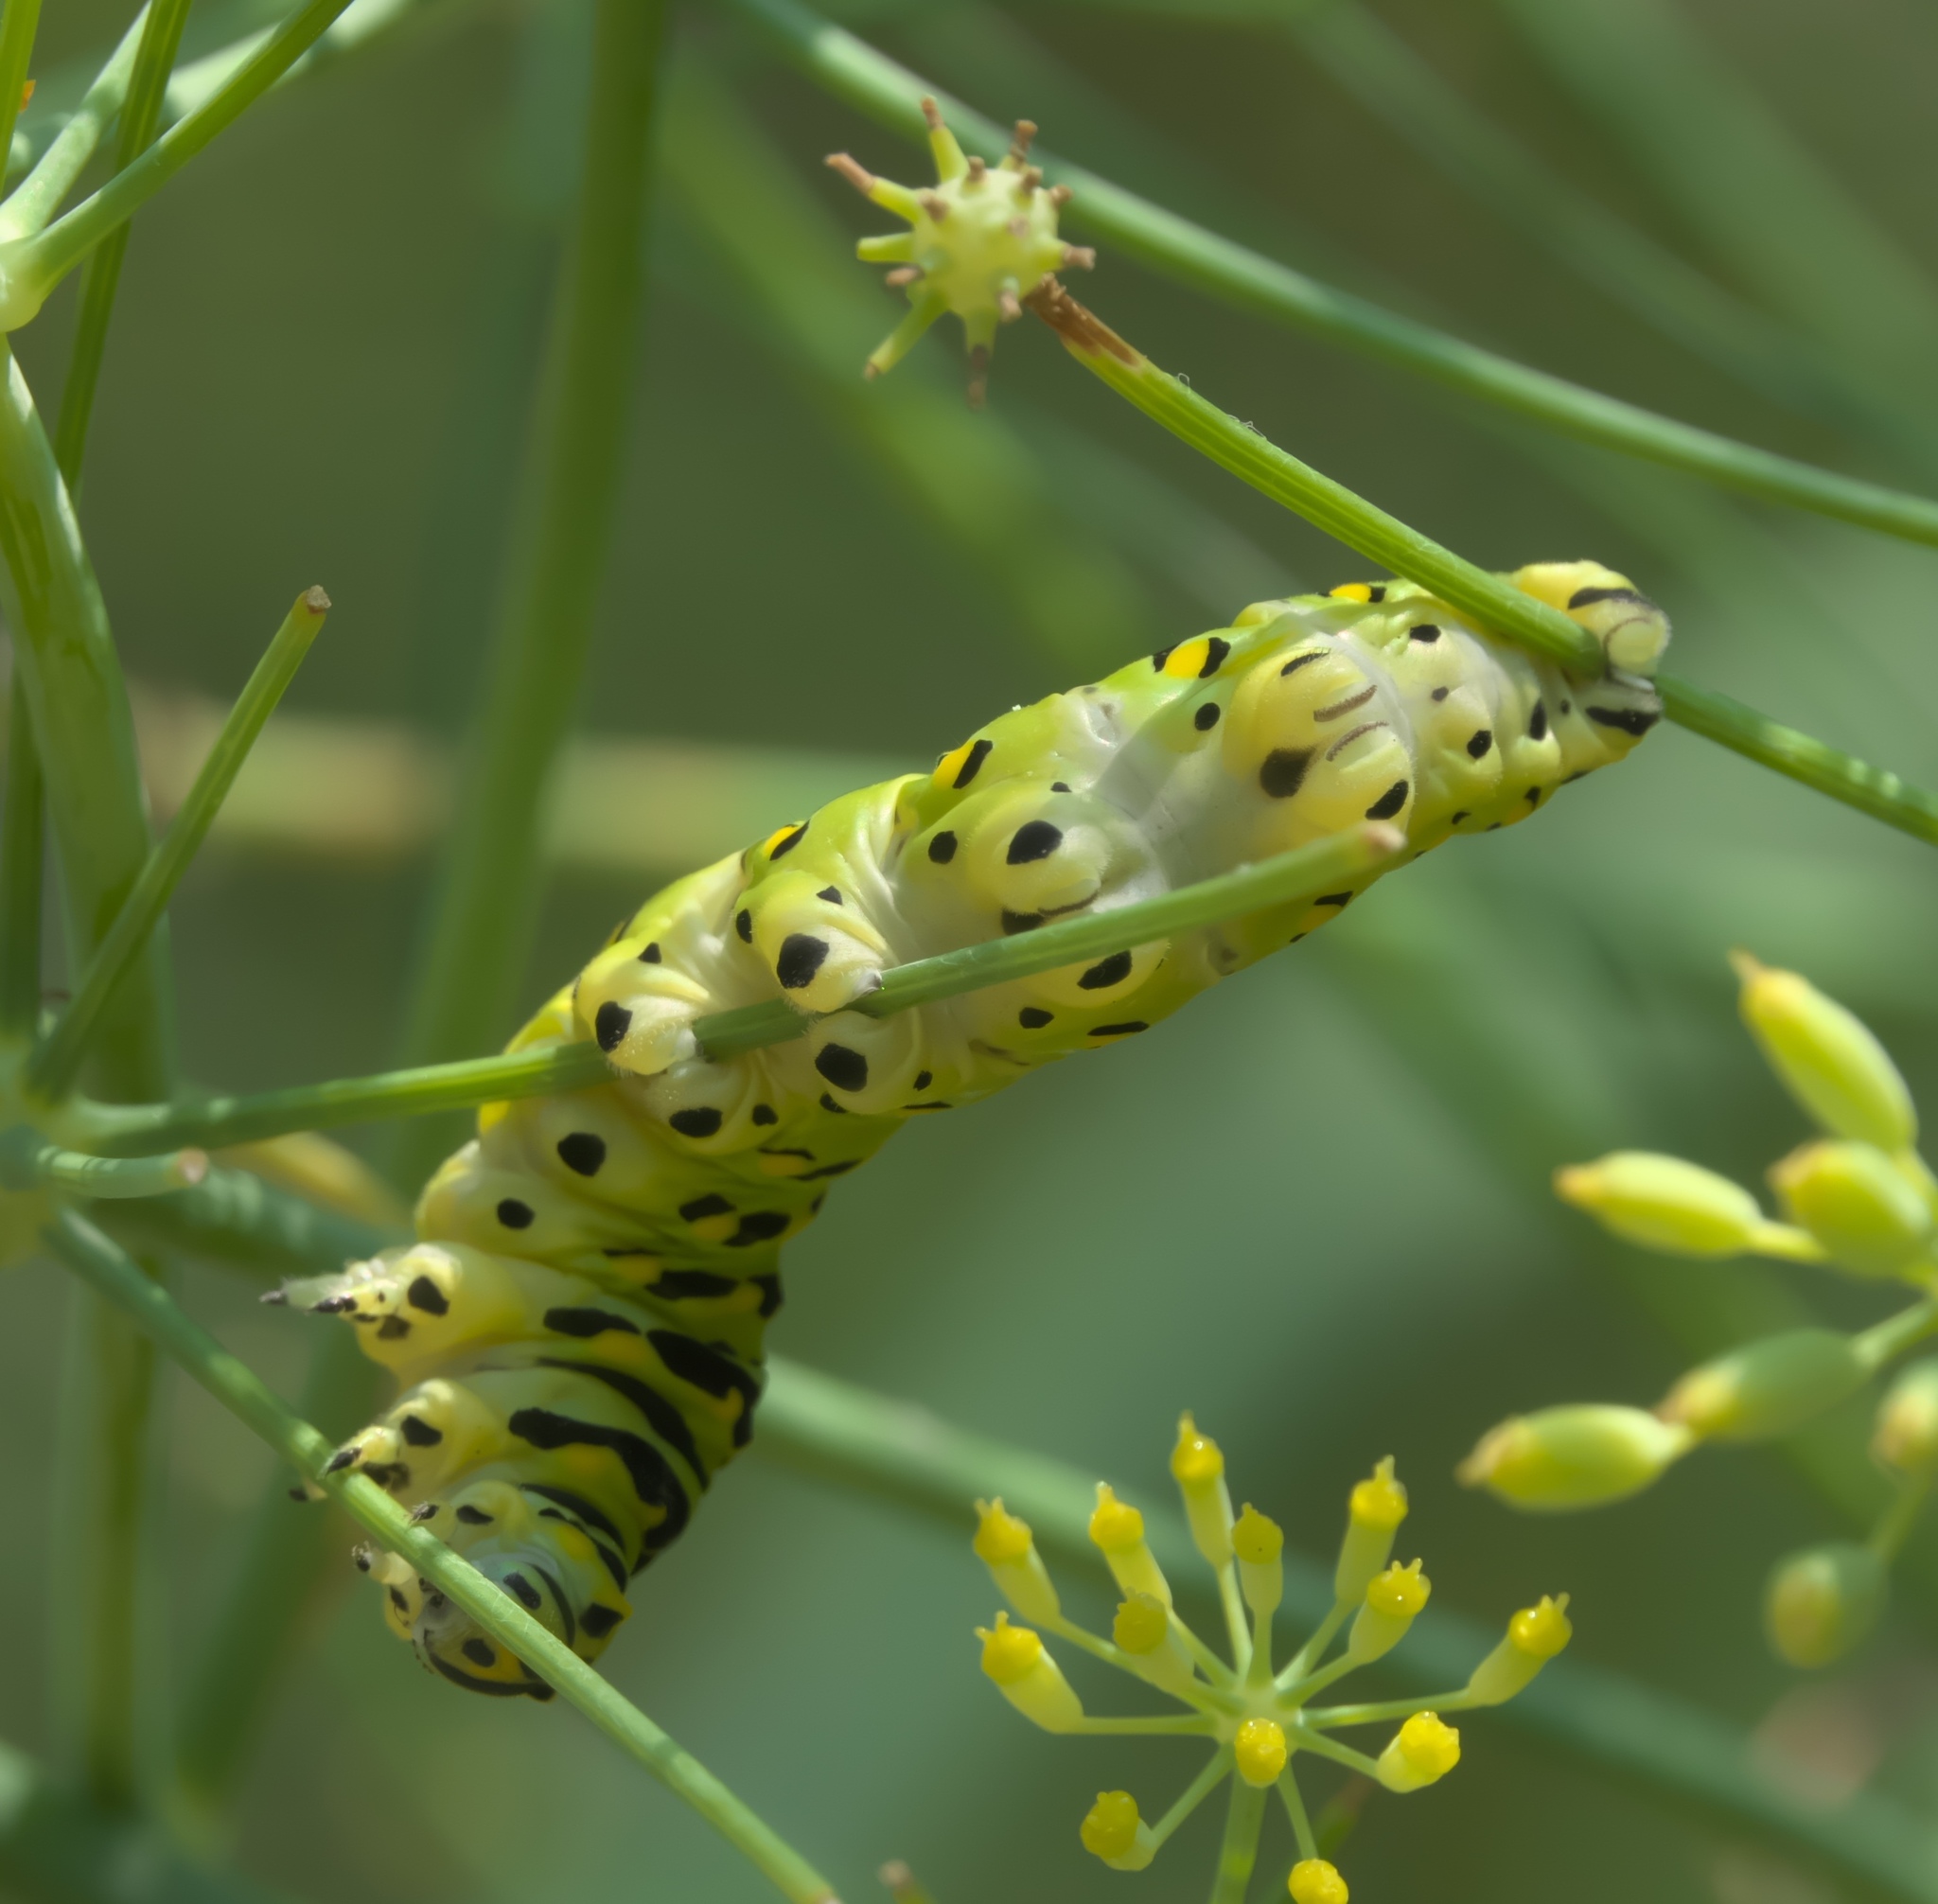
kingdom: Animalia
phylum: Arthropoda
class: Insecta
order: Lepidoptera
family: Papilionidae
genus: Papilio
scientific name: Papilio polyxenes
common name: Black swallowtail
